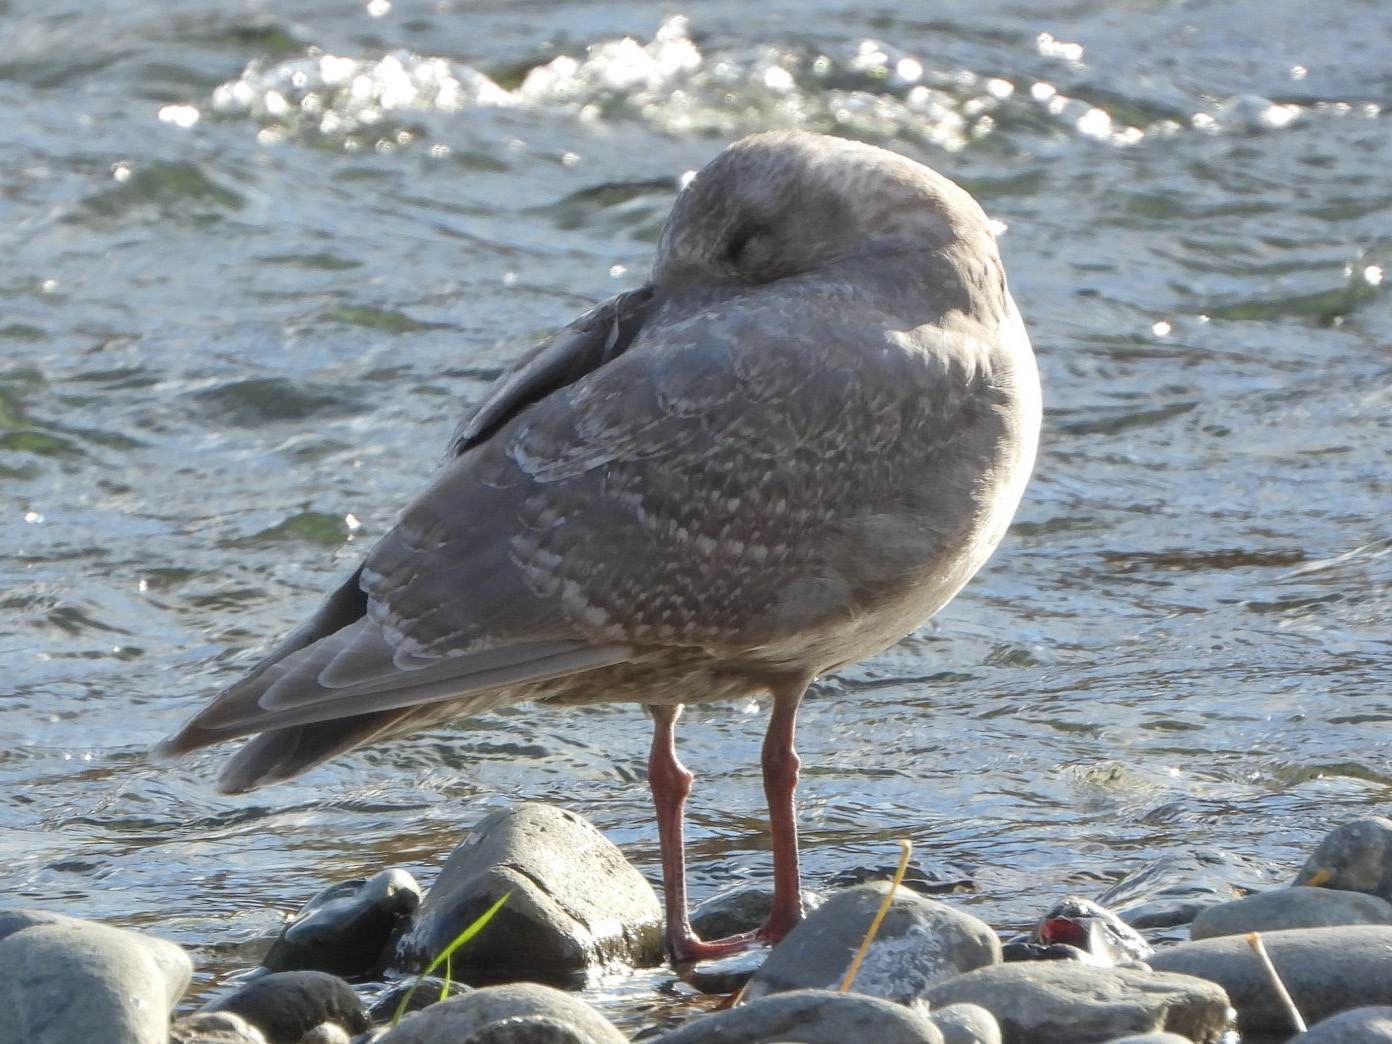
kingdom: Animalia
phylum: Chordata
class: Aves
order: Charadriiformes
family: Laridae
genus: Larus
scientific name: Larus glaucescens
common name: Glaucous-winged gull
